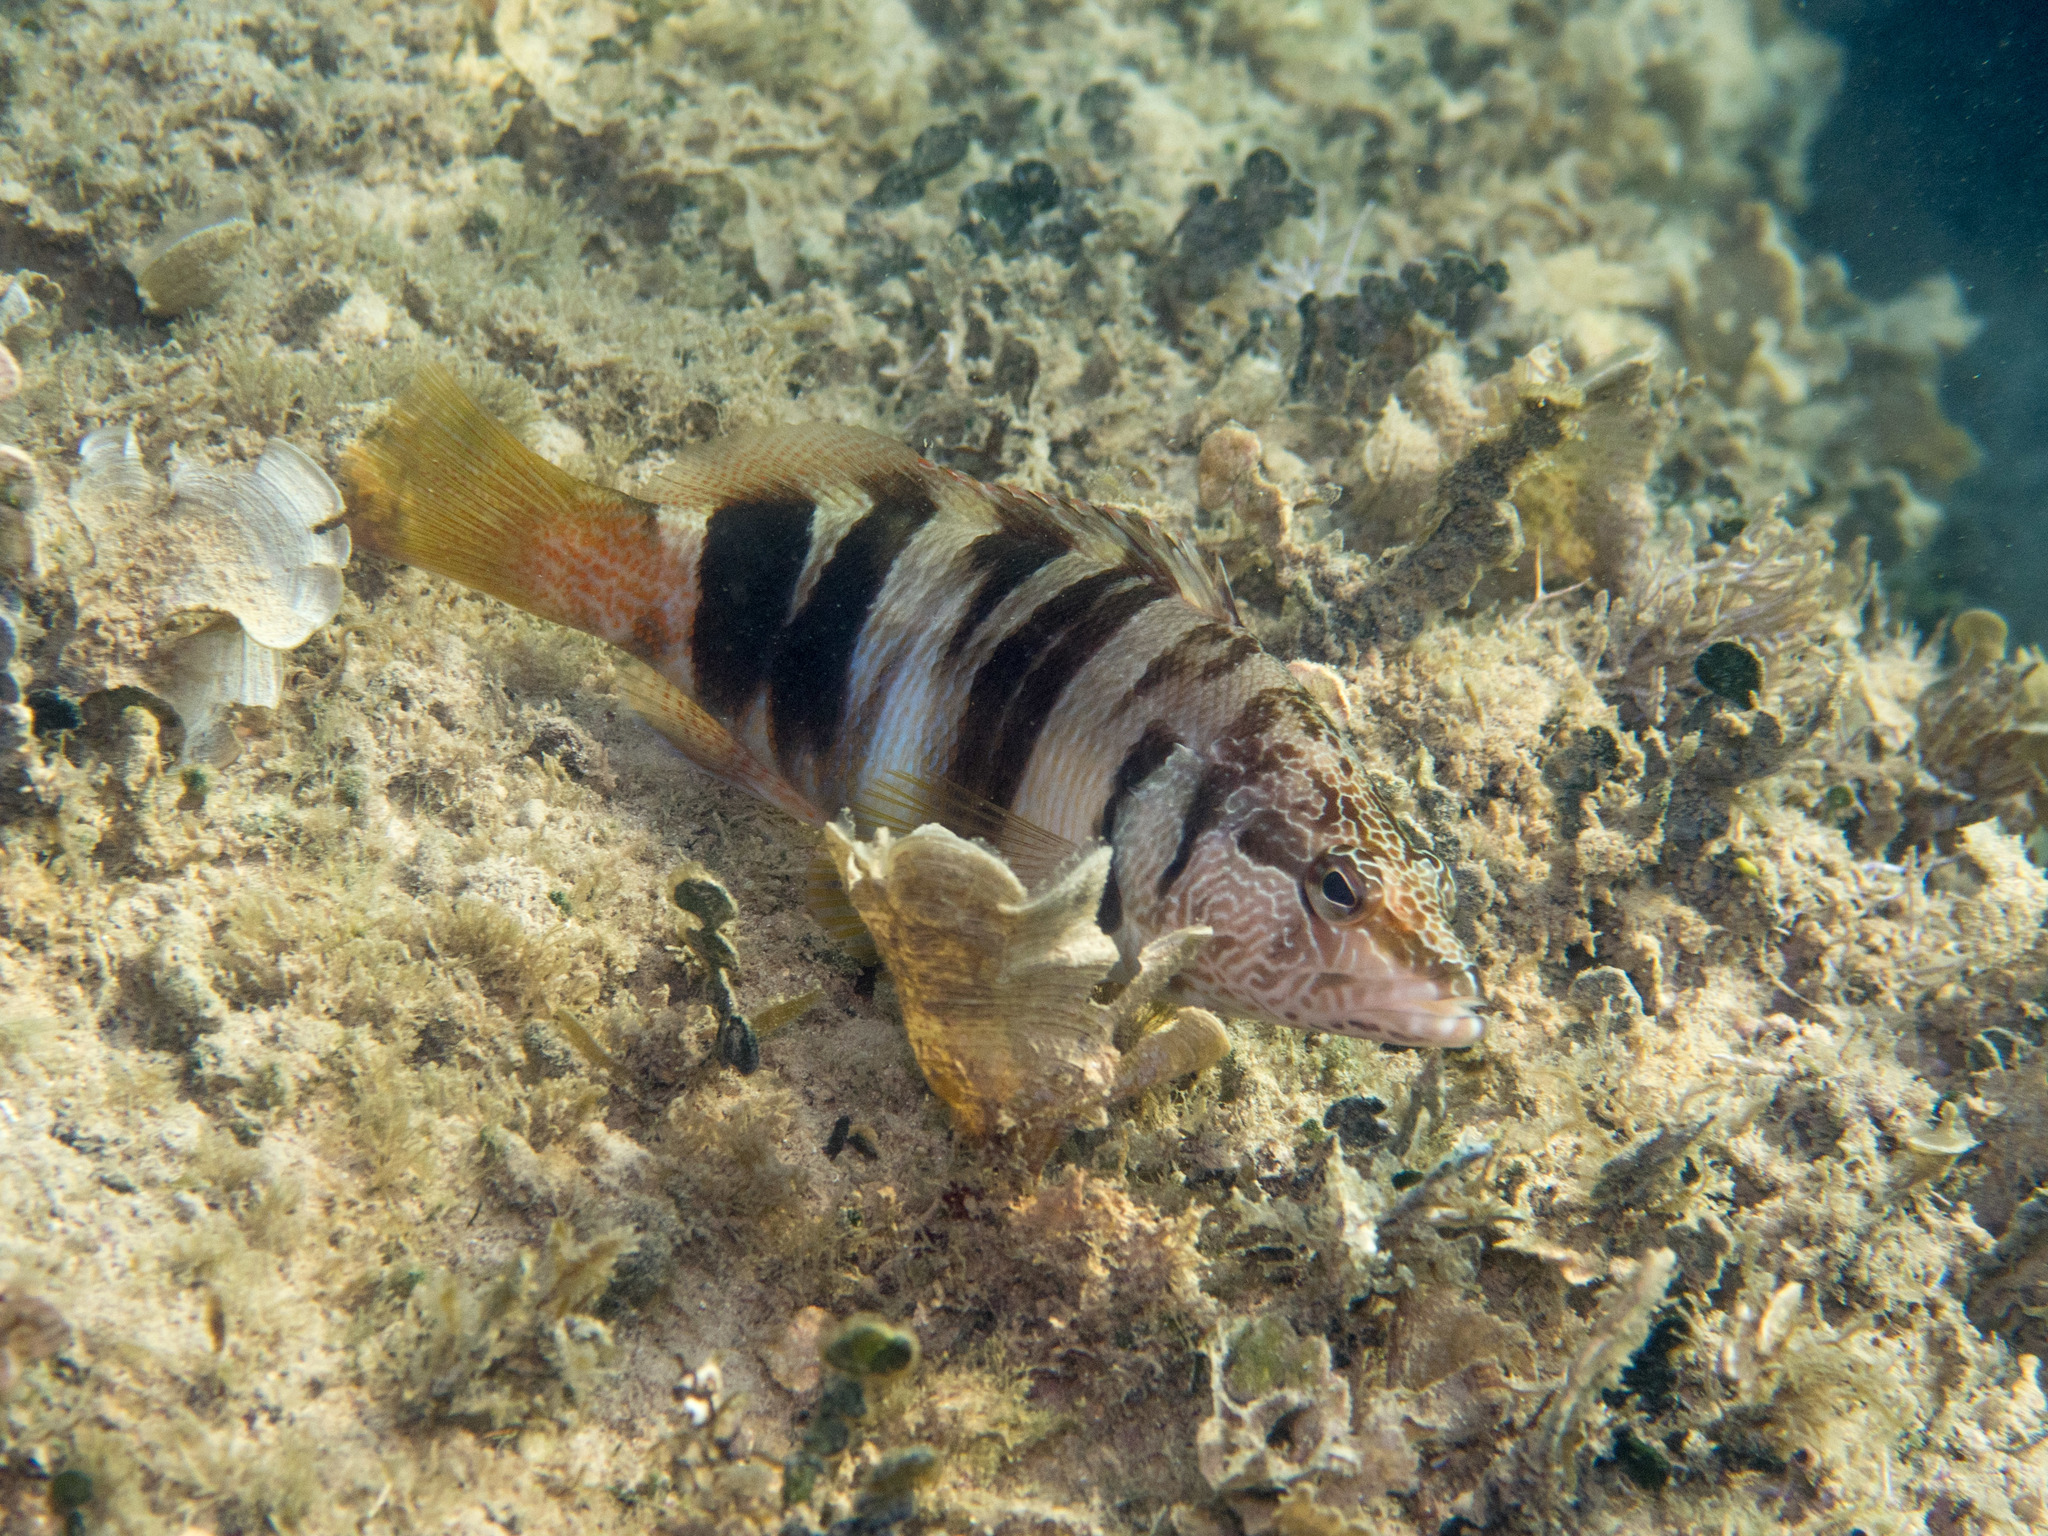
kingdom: Animalia
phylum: Chordata
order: Perciformes
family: Serranidae
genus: Serranus
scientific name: Serranus scriba
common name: Painted comber
